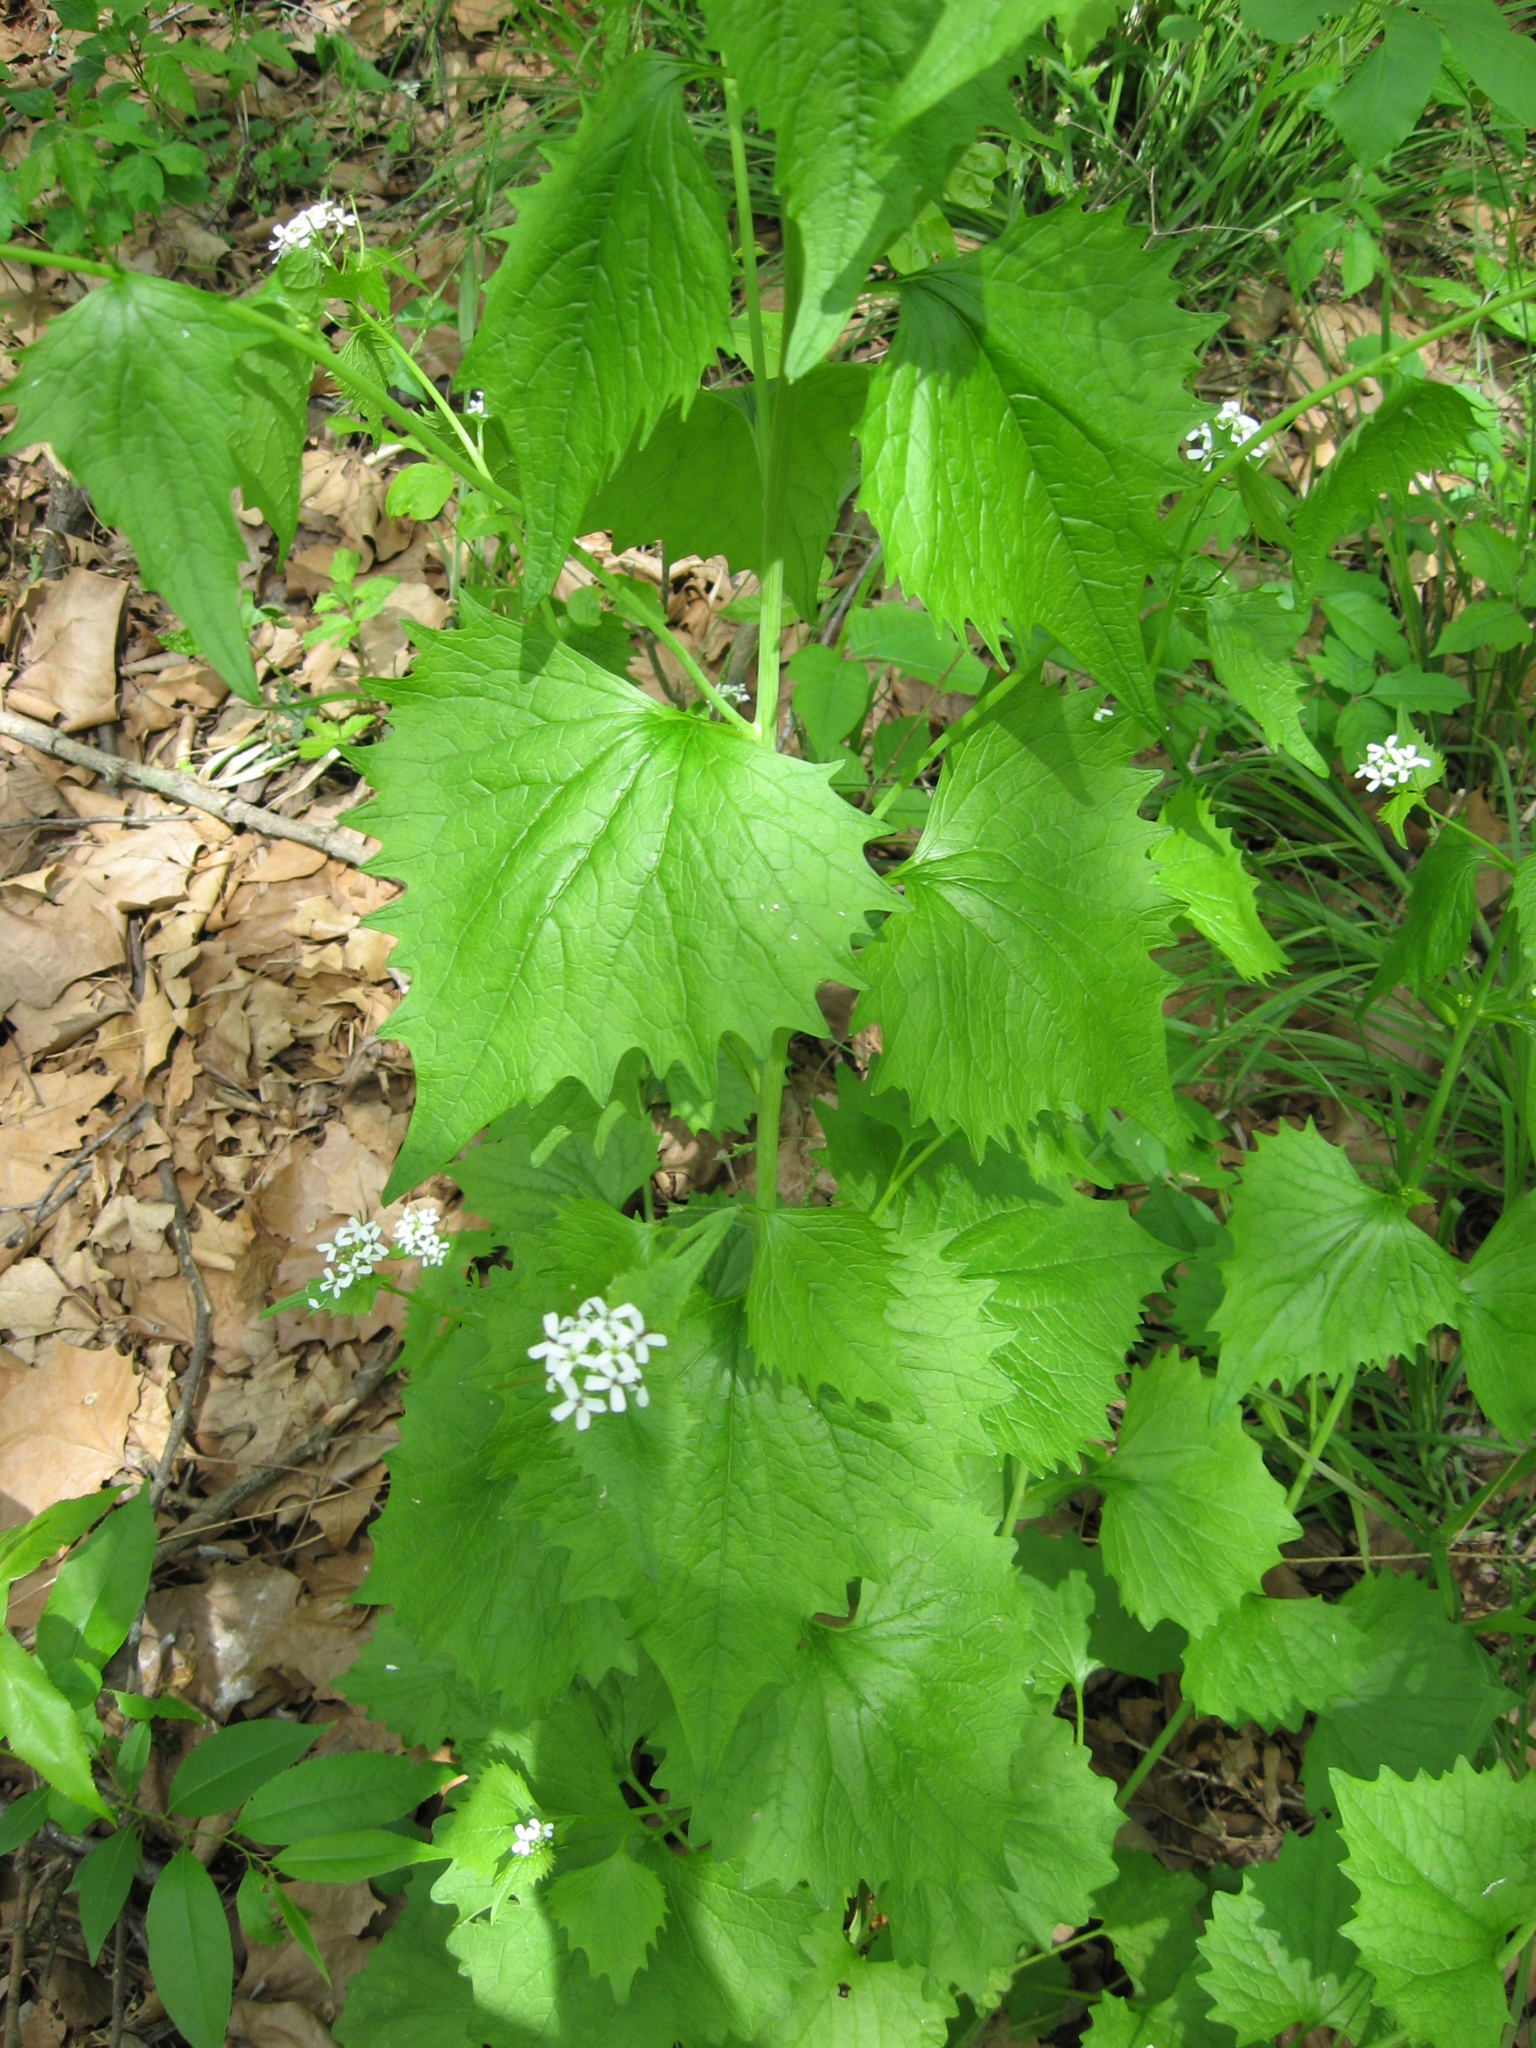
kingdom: Plantae
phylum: Tracheophyta
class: Magnoliopsida
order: Brassicales
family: Brassicaceae
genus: Alliaria
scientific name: Alliaria petiolata
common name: Garlic mustard
